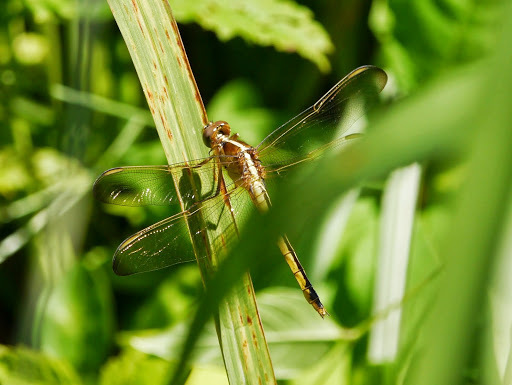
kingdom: Animalia
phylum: Arthropoda
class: Insecta
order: Odonata
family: Libellulidae
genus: Libellula
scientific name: Libellula needhami
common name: Needham's skimmer
